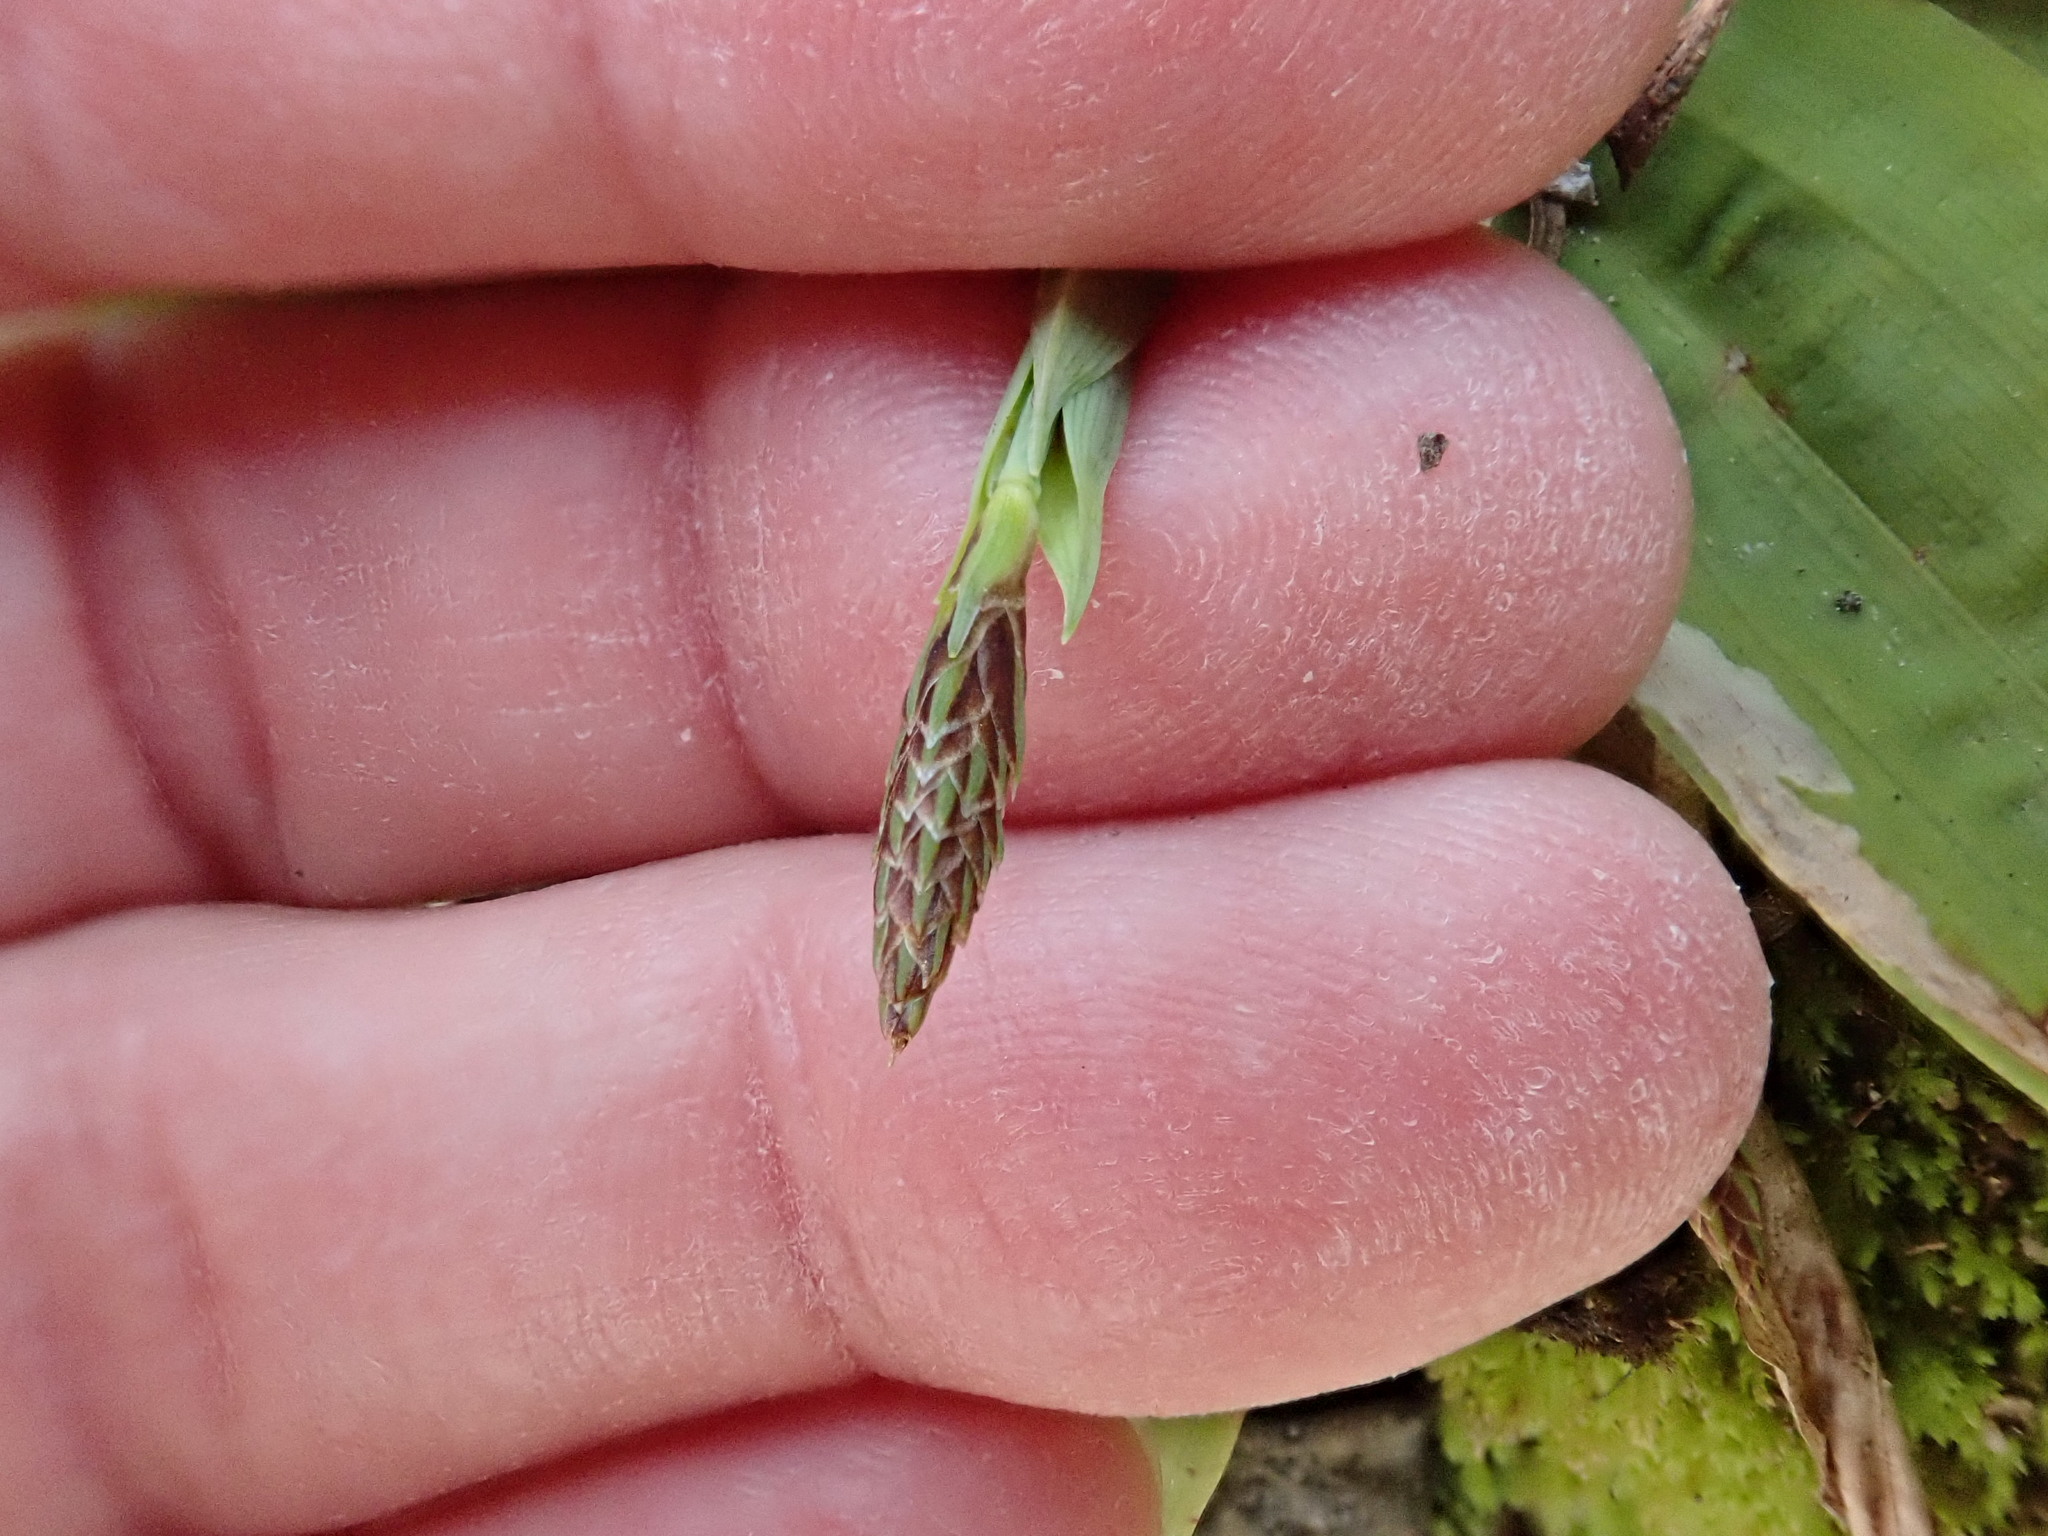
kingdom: Plantae
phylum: Tracheophyta
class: Liliopsida
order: Poales
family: Cyperaceae
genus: Carex
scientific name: Carex platyphylla
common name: Broad-leaved sedge
